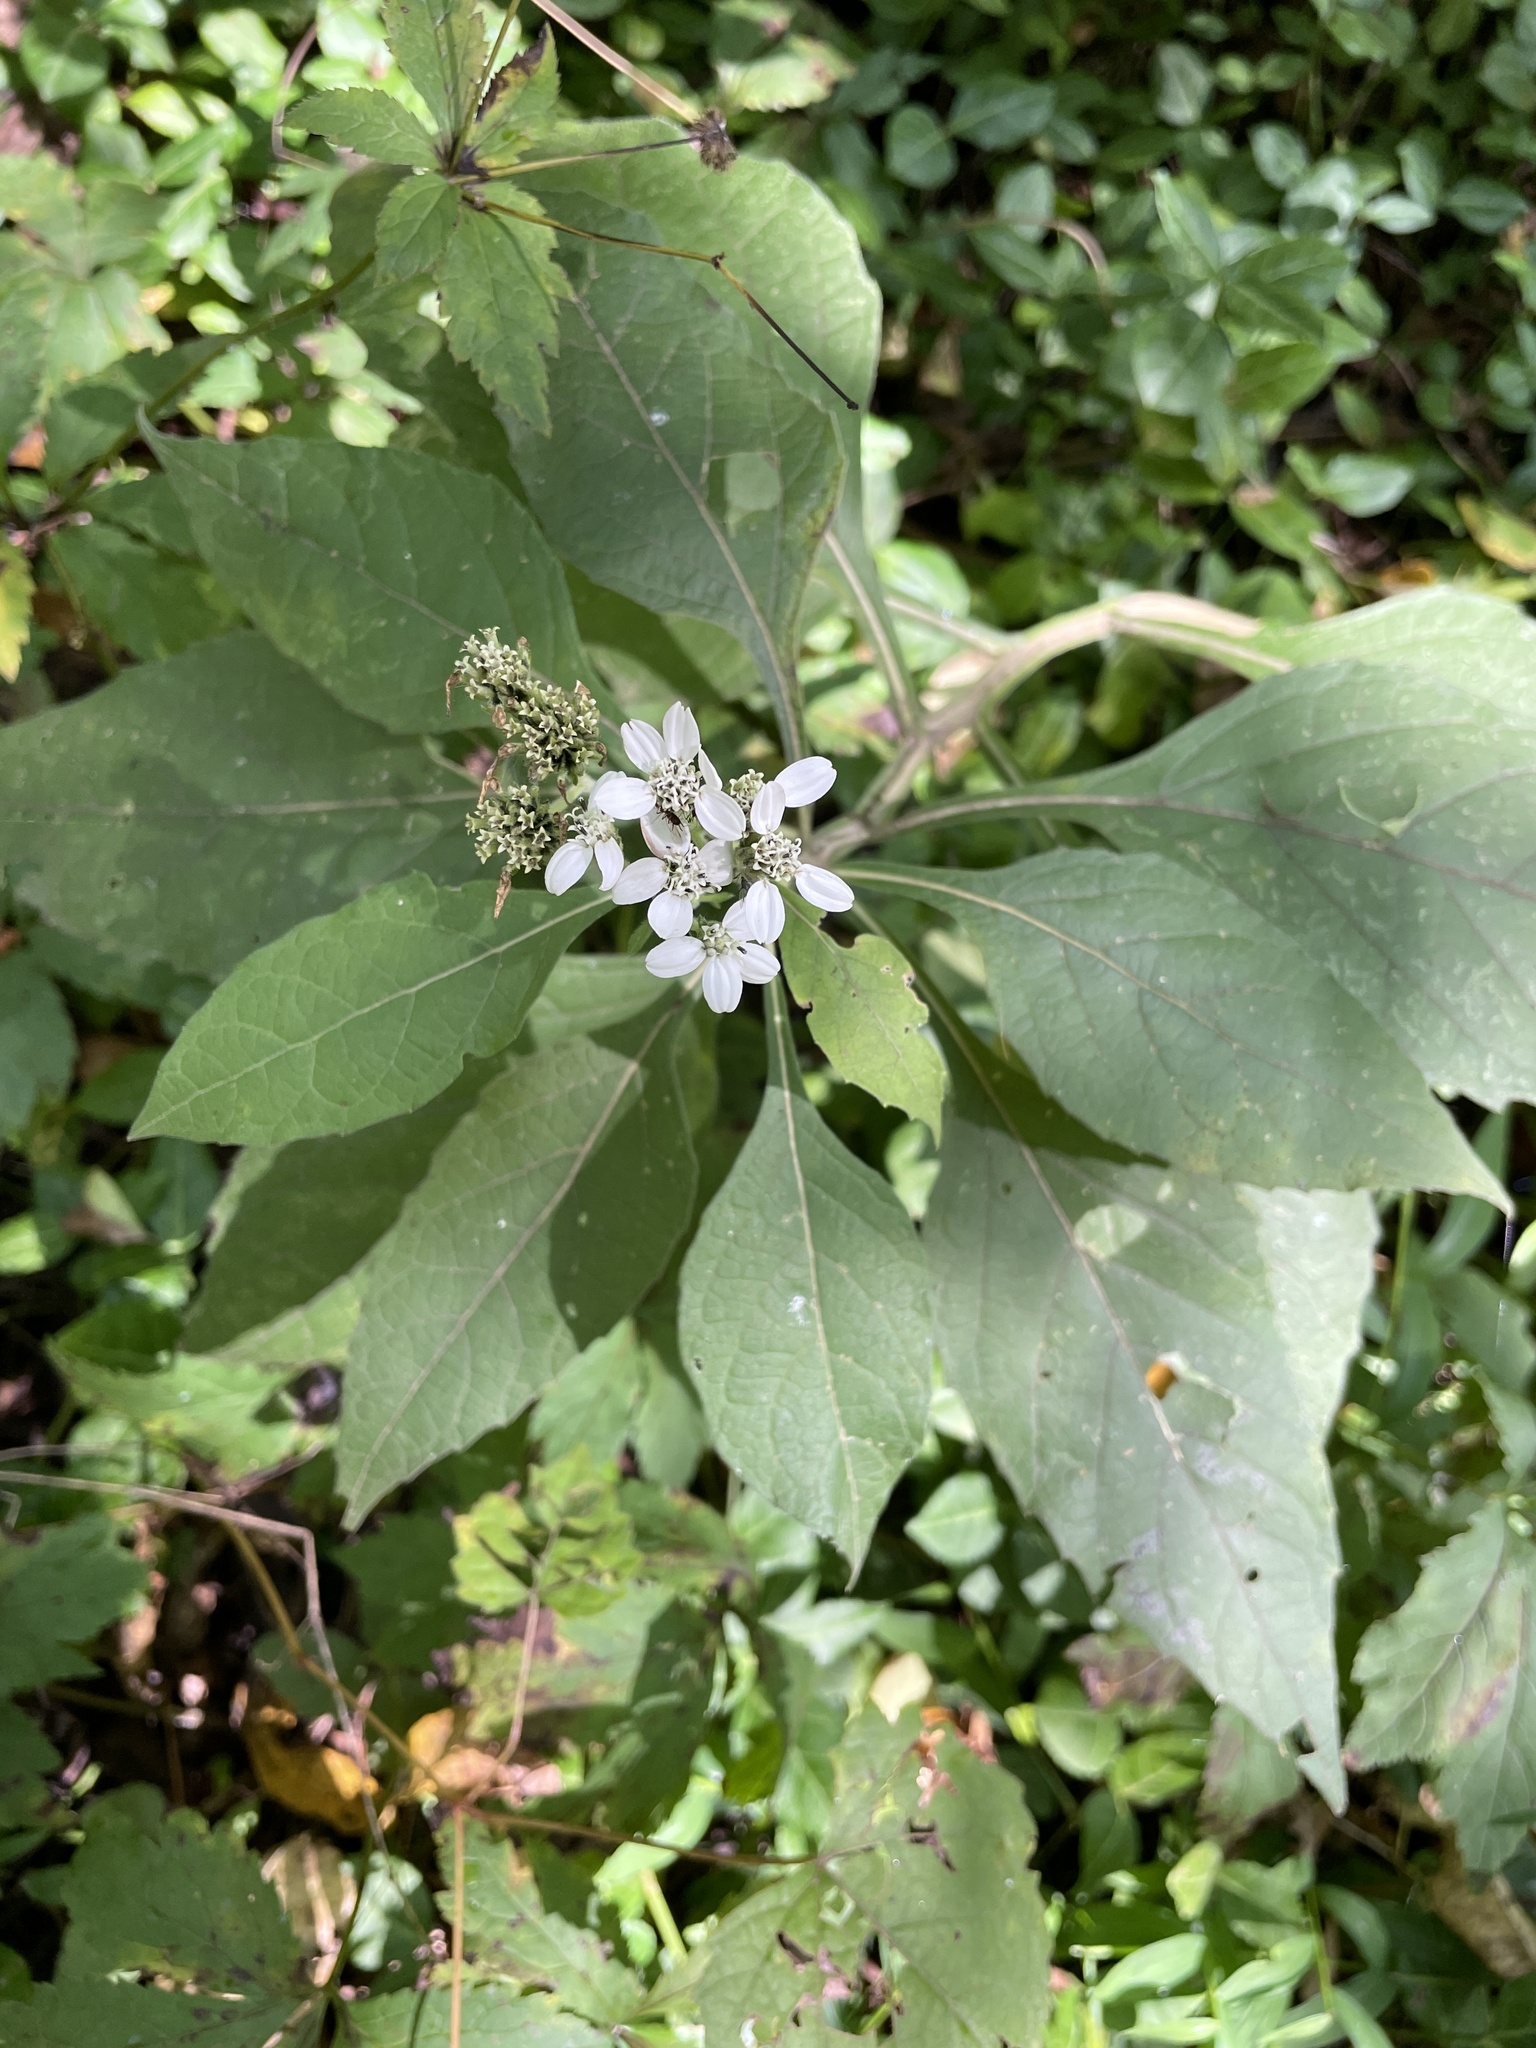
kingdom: Plantae
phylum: Tracheophyta
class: Magnoliopsida
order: Asterales
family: Asteraceae
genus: Verbesina
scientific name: Verbesina virginica
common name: Frostweed
